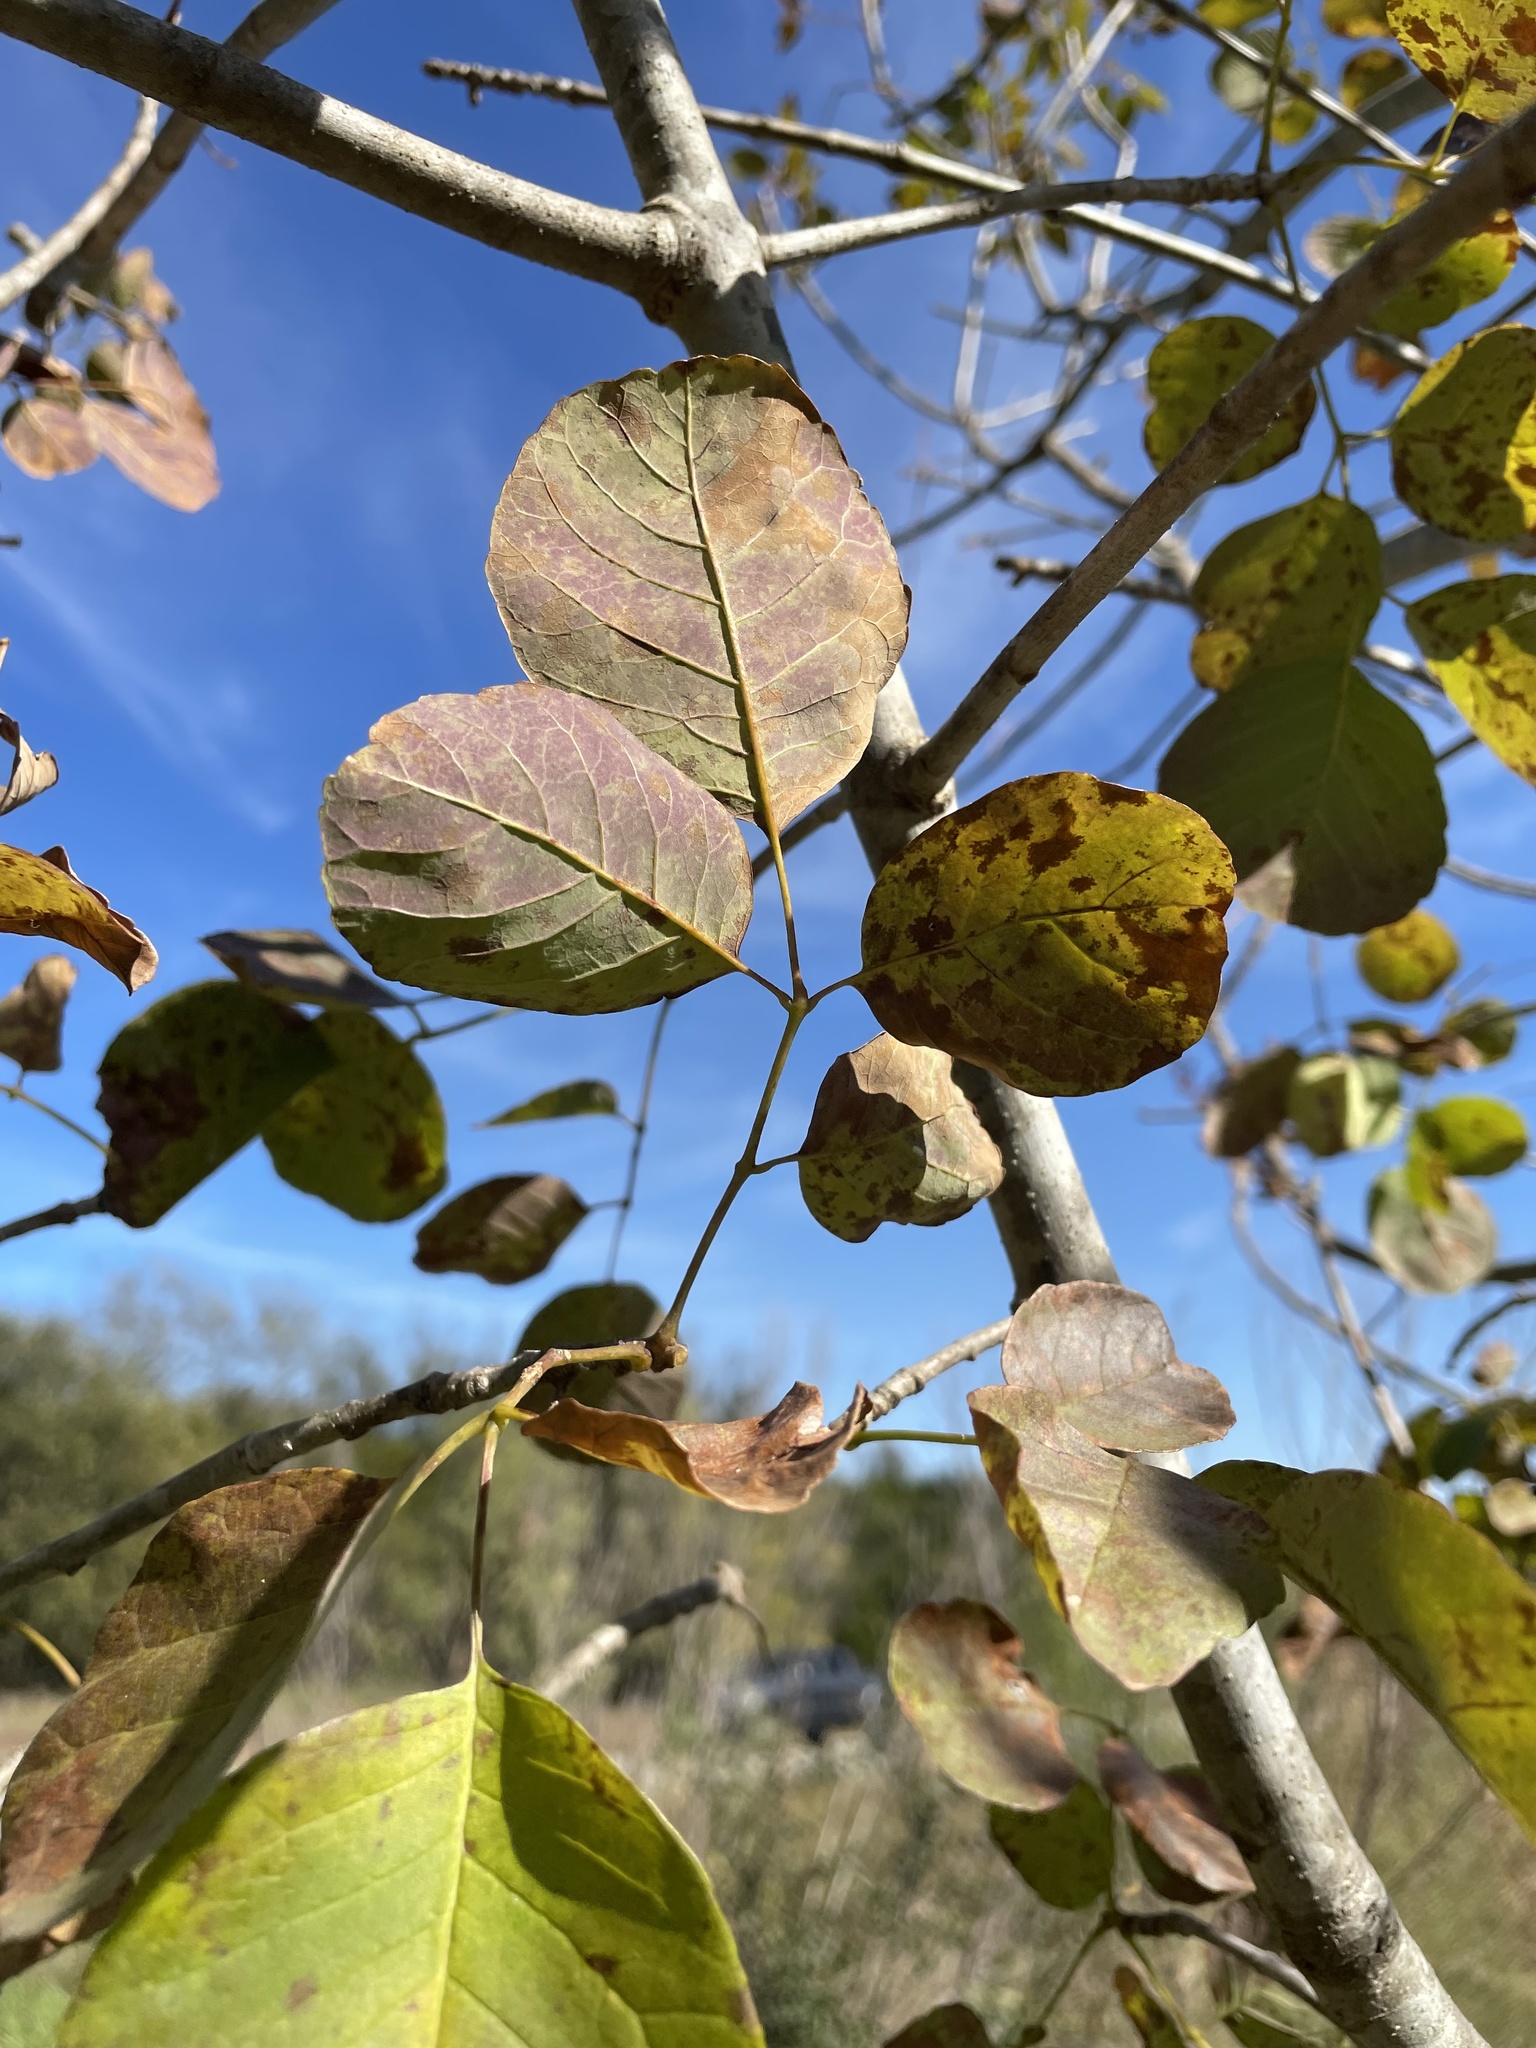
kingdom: Plantae
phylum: Tracheophyta
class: Magnoliopsida
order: Lamiales
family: Oleaceae
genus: Fraxinus
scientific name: Fraxinus albicans
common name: Texas ash
